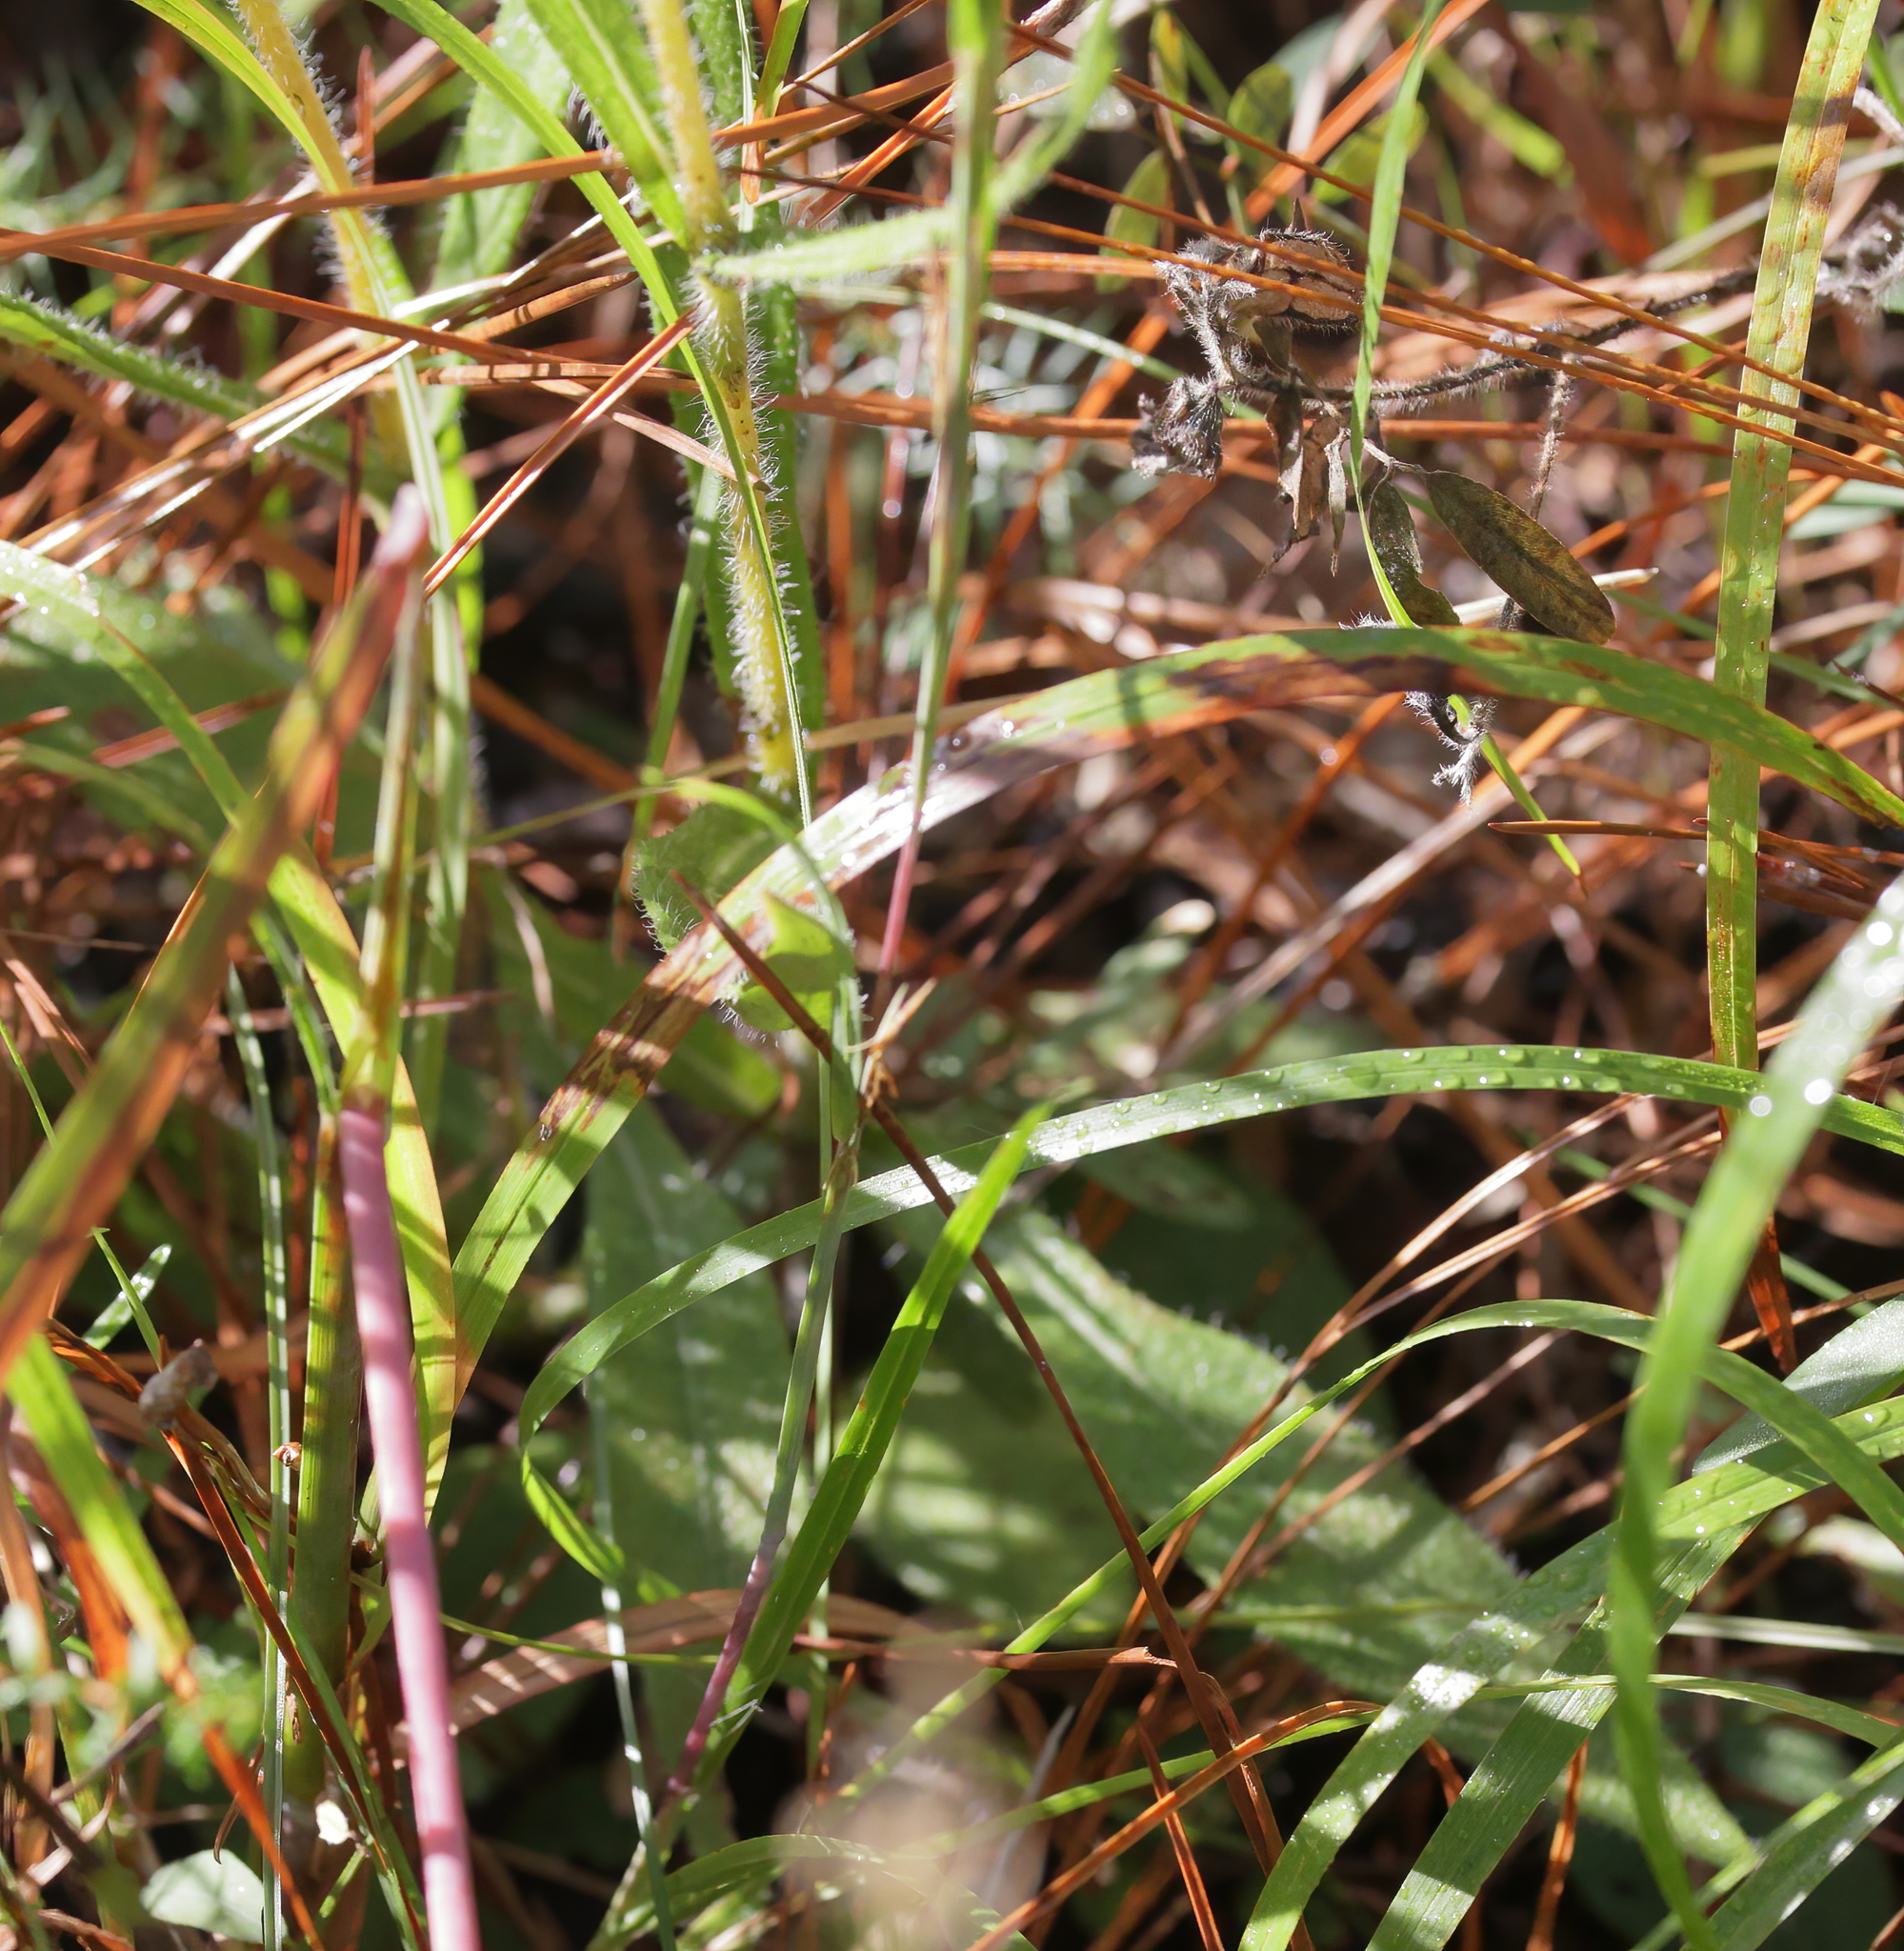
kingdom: Plantae
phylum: Tracheophyta
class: Magnoliopsida
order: Asterales
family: Asteraceae
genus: Helianthus
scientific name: Helianthus heterophyllus
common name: Wetland sunflower
